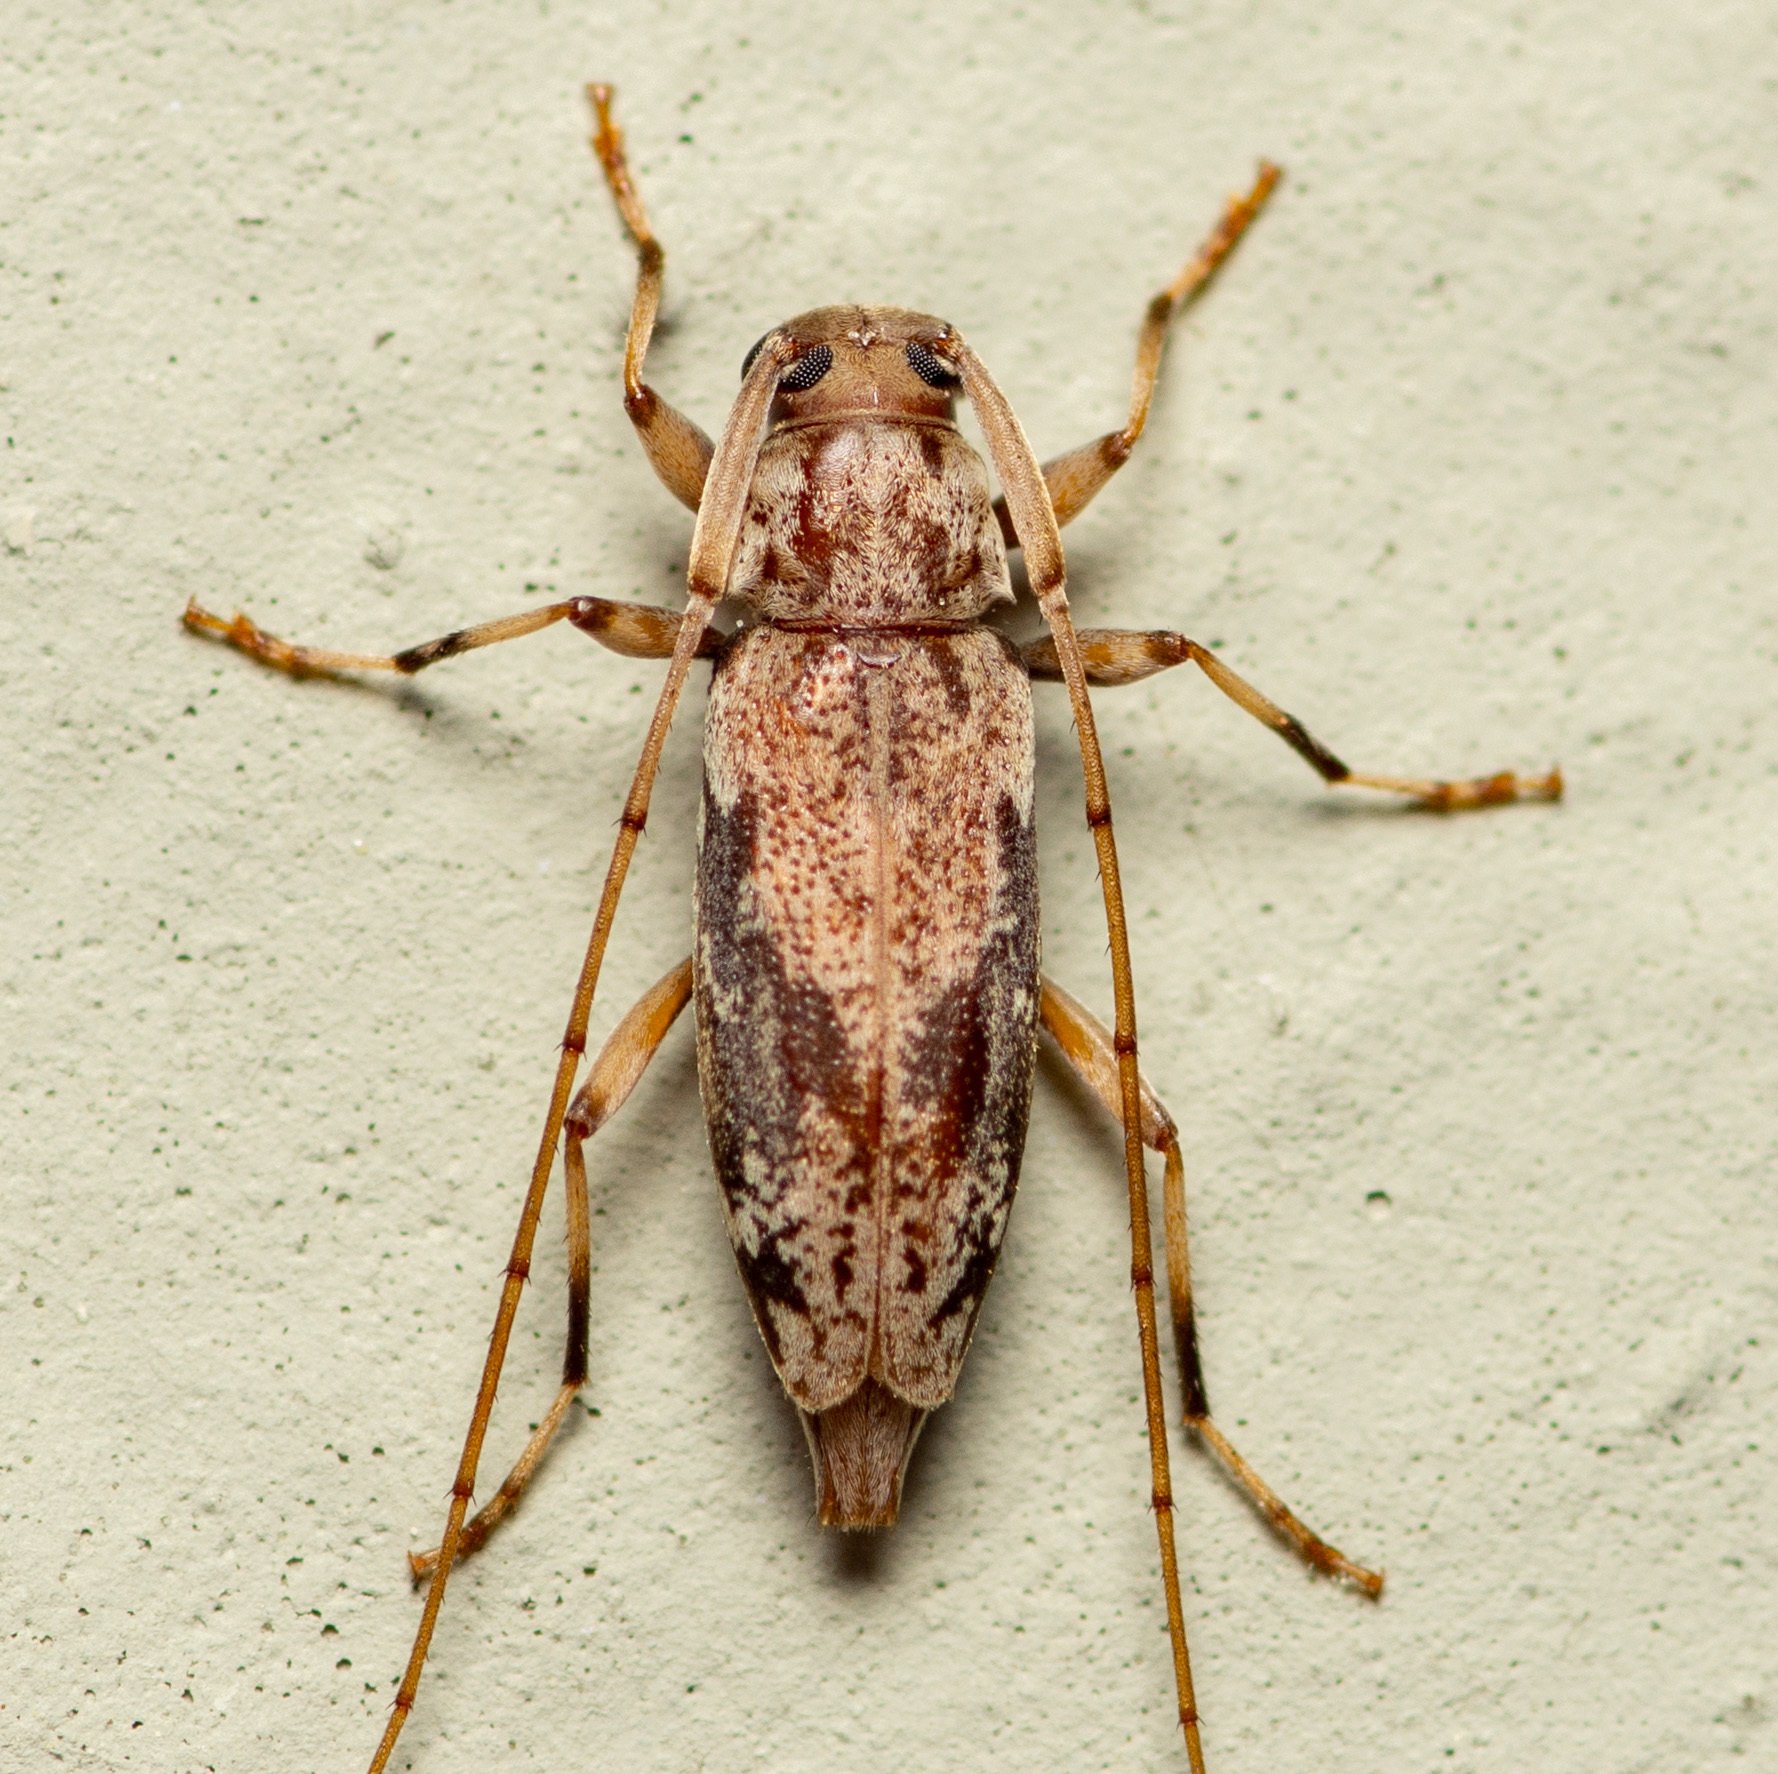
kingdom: Animalia
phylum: Arthropoda
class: Insecta
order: Coleoptera
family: Cerambycidae
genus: Lepturges
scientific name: Lepturges angulatus
